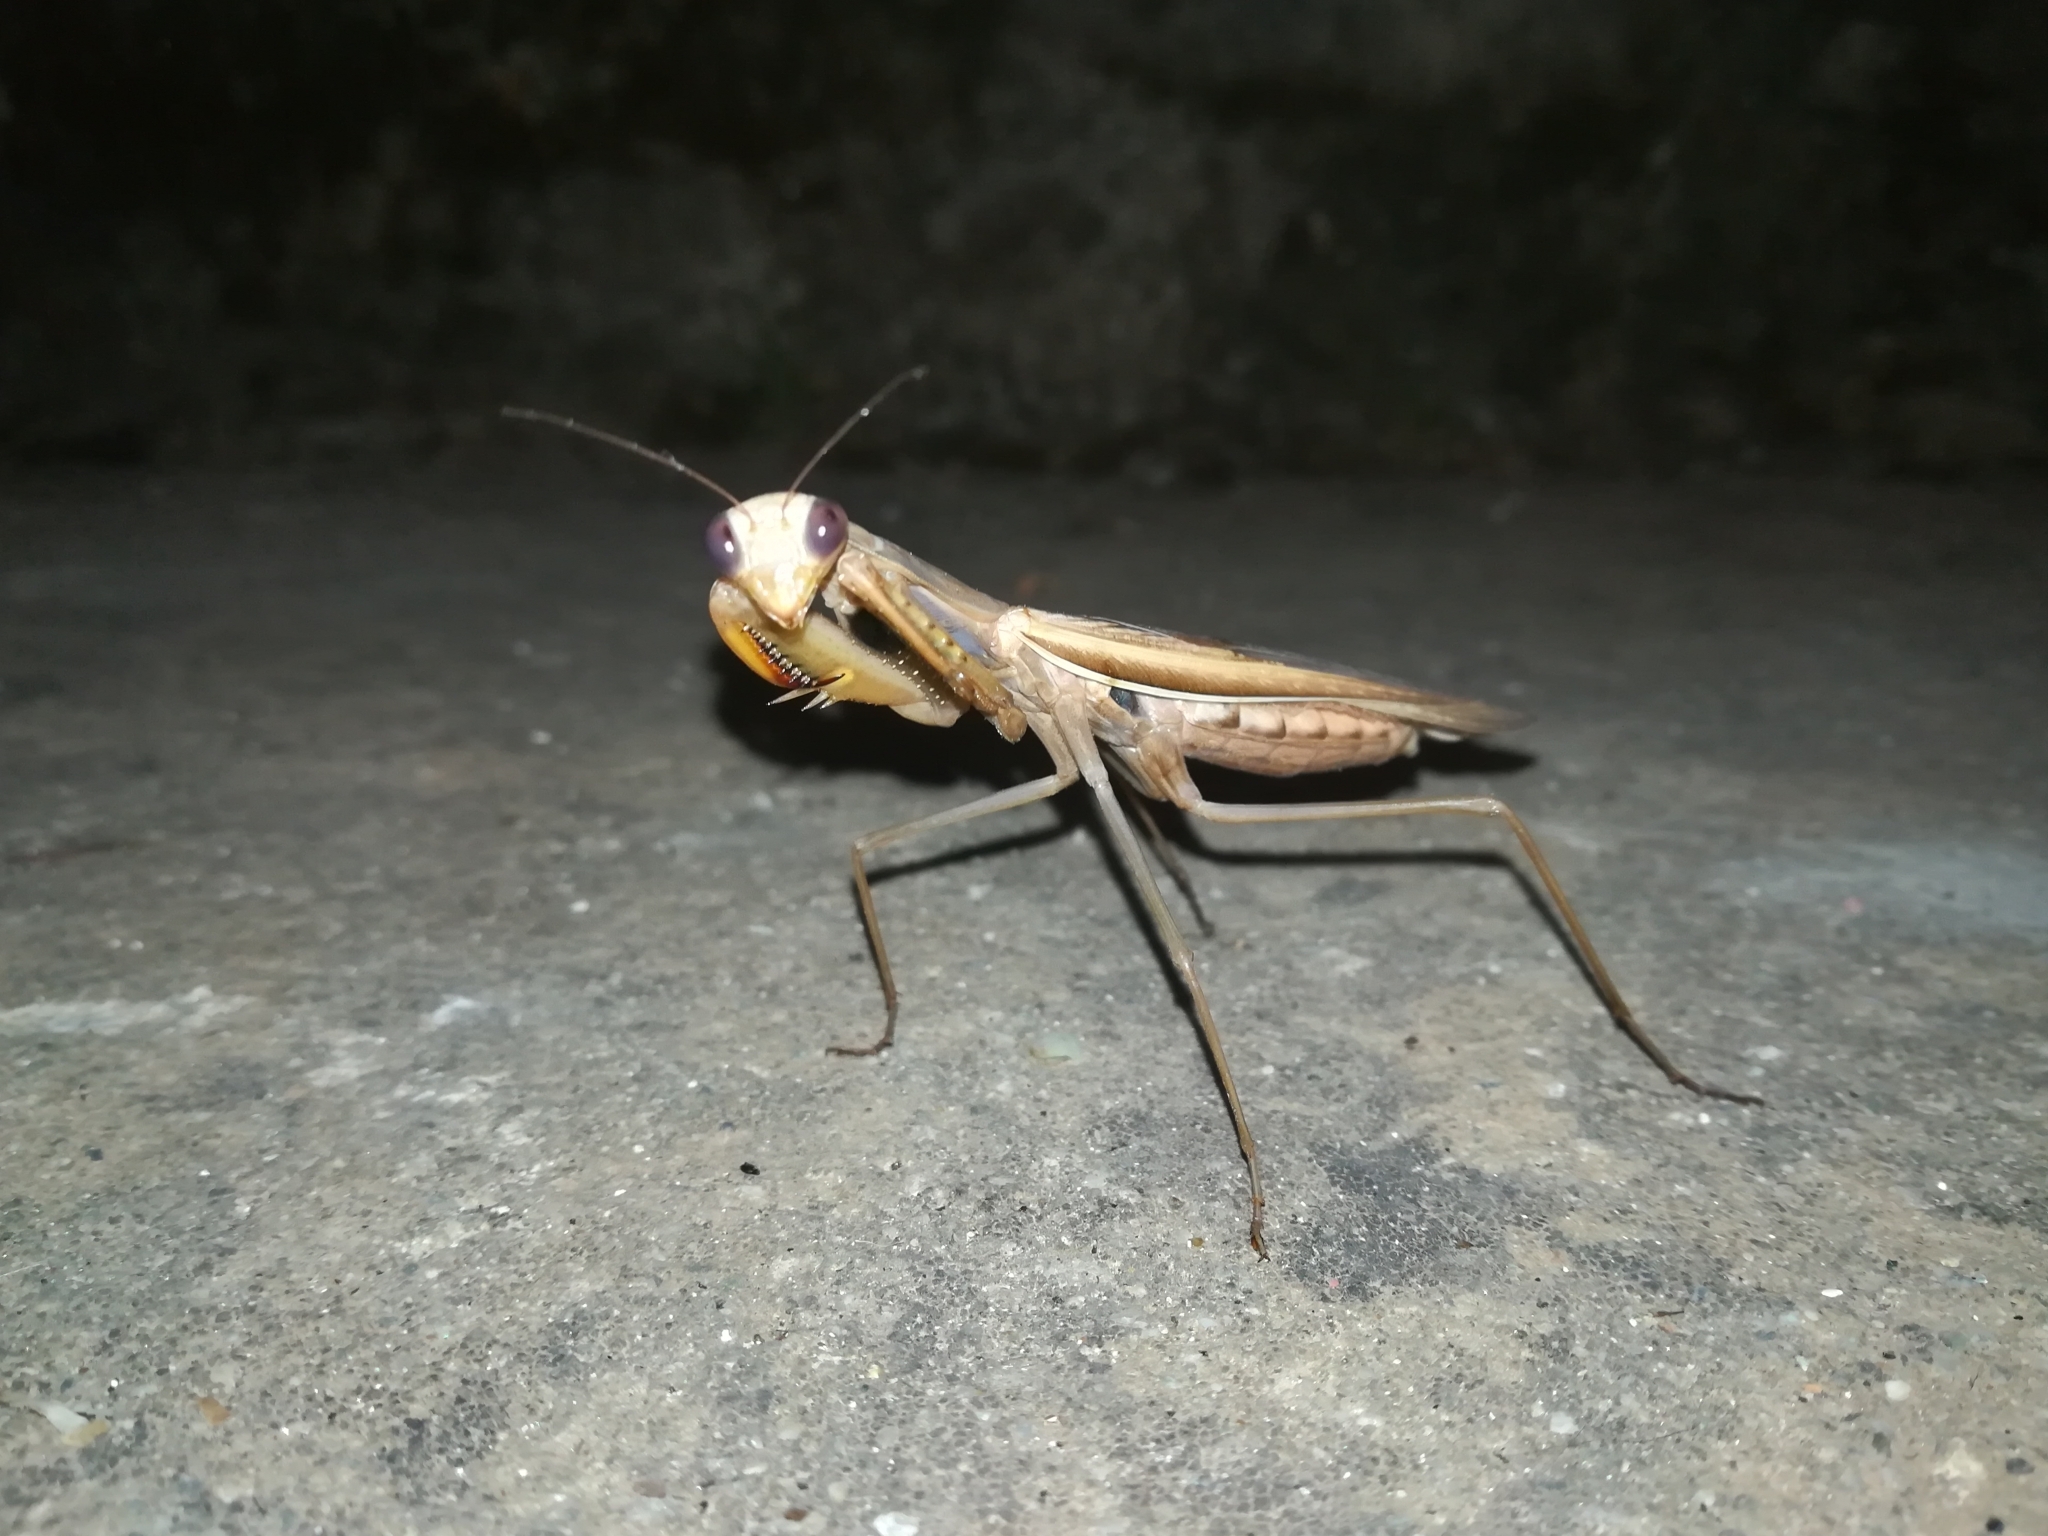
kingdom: Animalia
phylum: Arthropoda
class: Insecta
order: Mantodea
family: Mantidae
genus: Mantis
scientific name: Mantis religiosa
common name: Praying mantis
